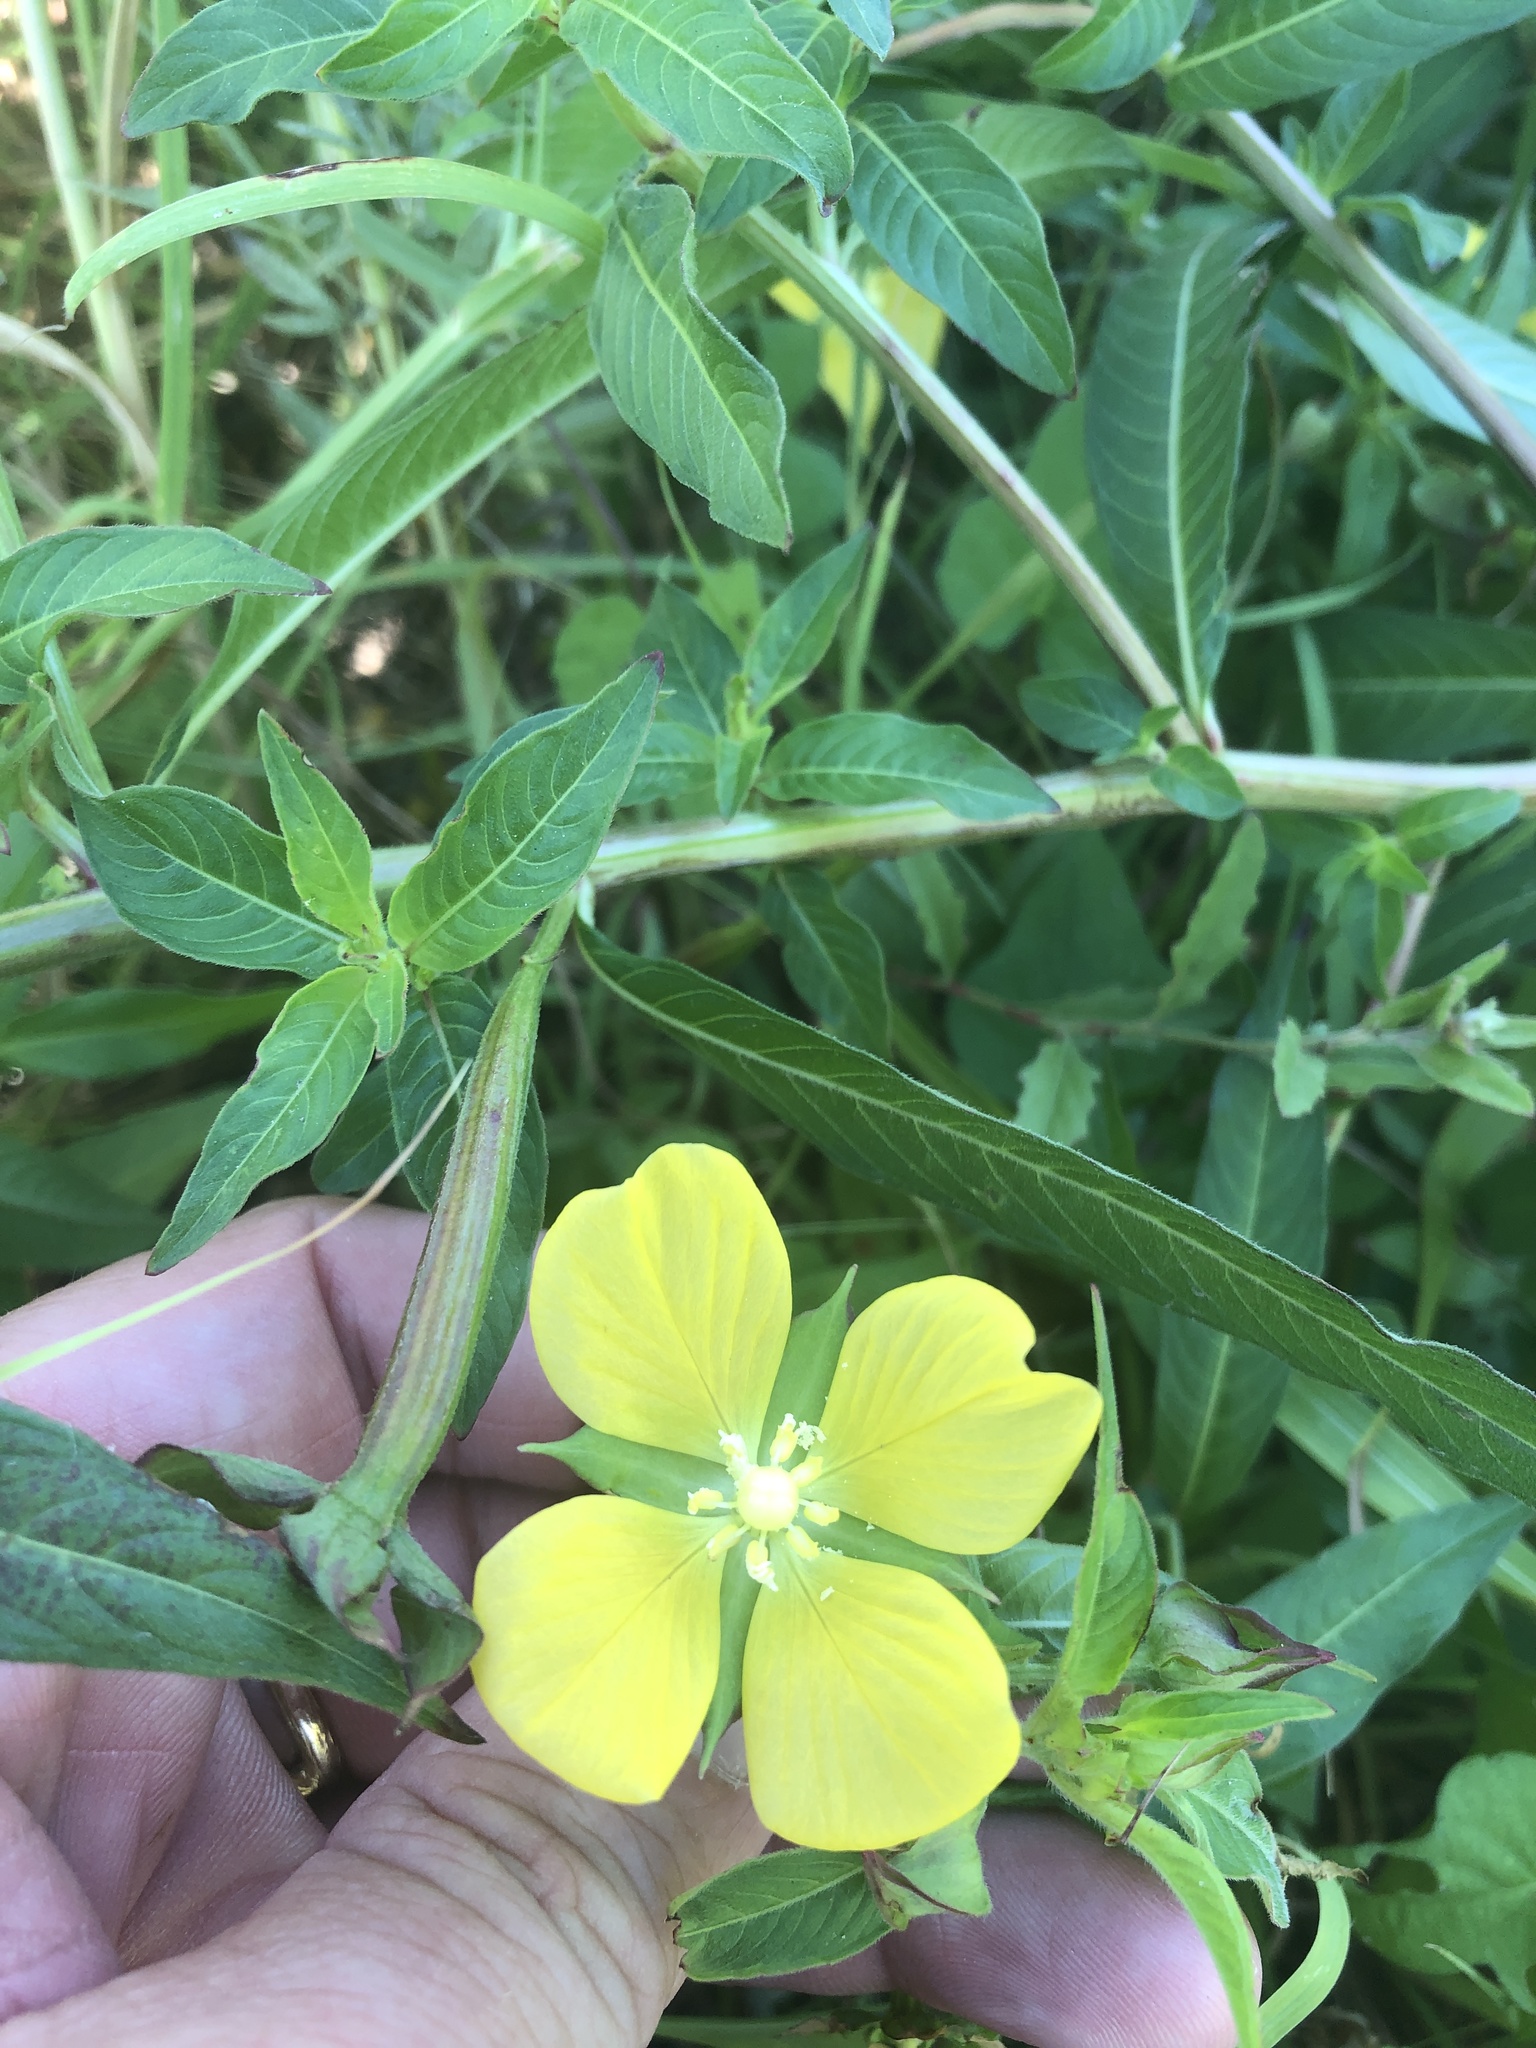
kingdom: Plantae
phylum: Tracheophyta
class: Magnoliopsida
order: Myrtales
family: Onagraceae
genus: Ludwigia
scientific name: Ludwigia octovalvis
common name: Water-primrose
